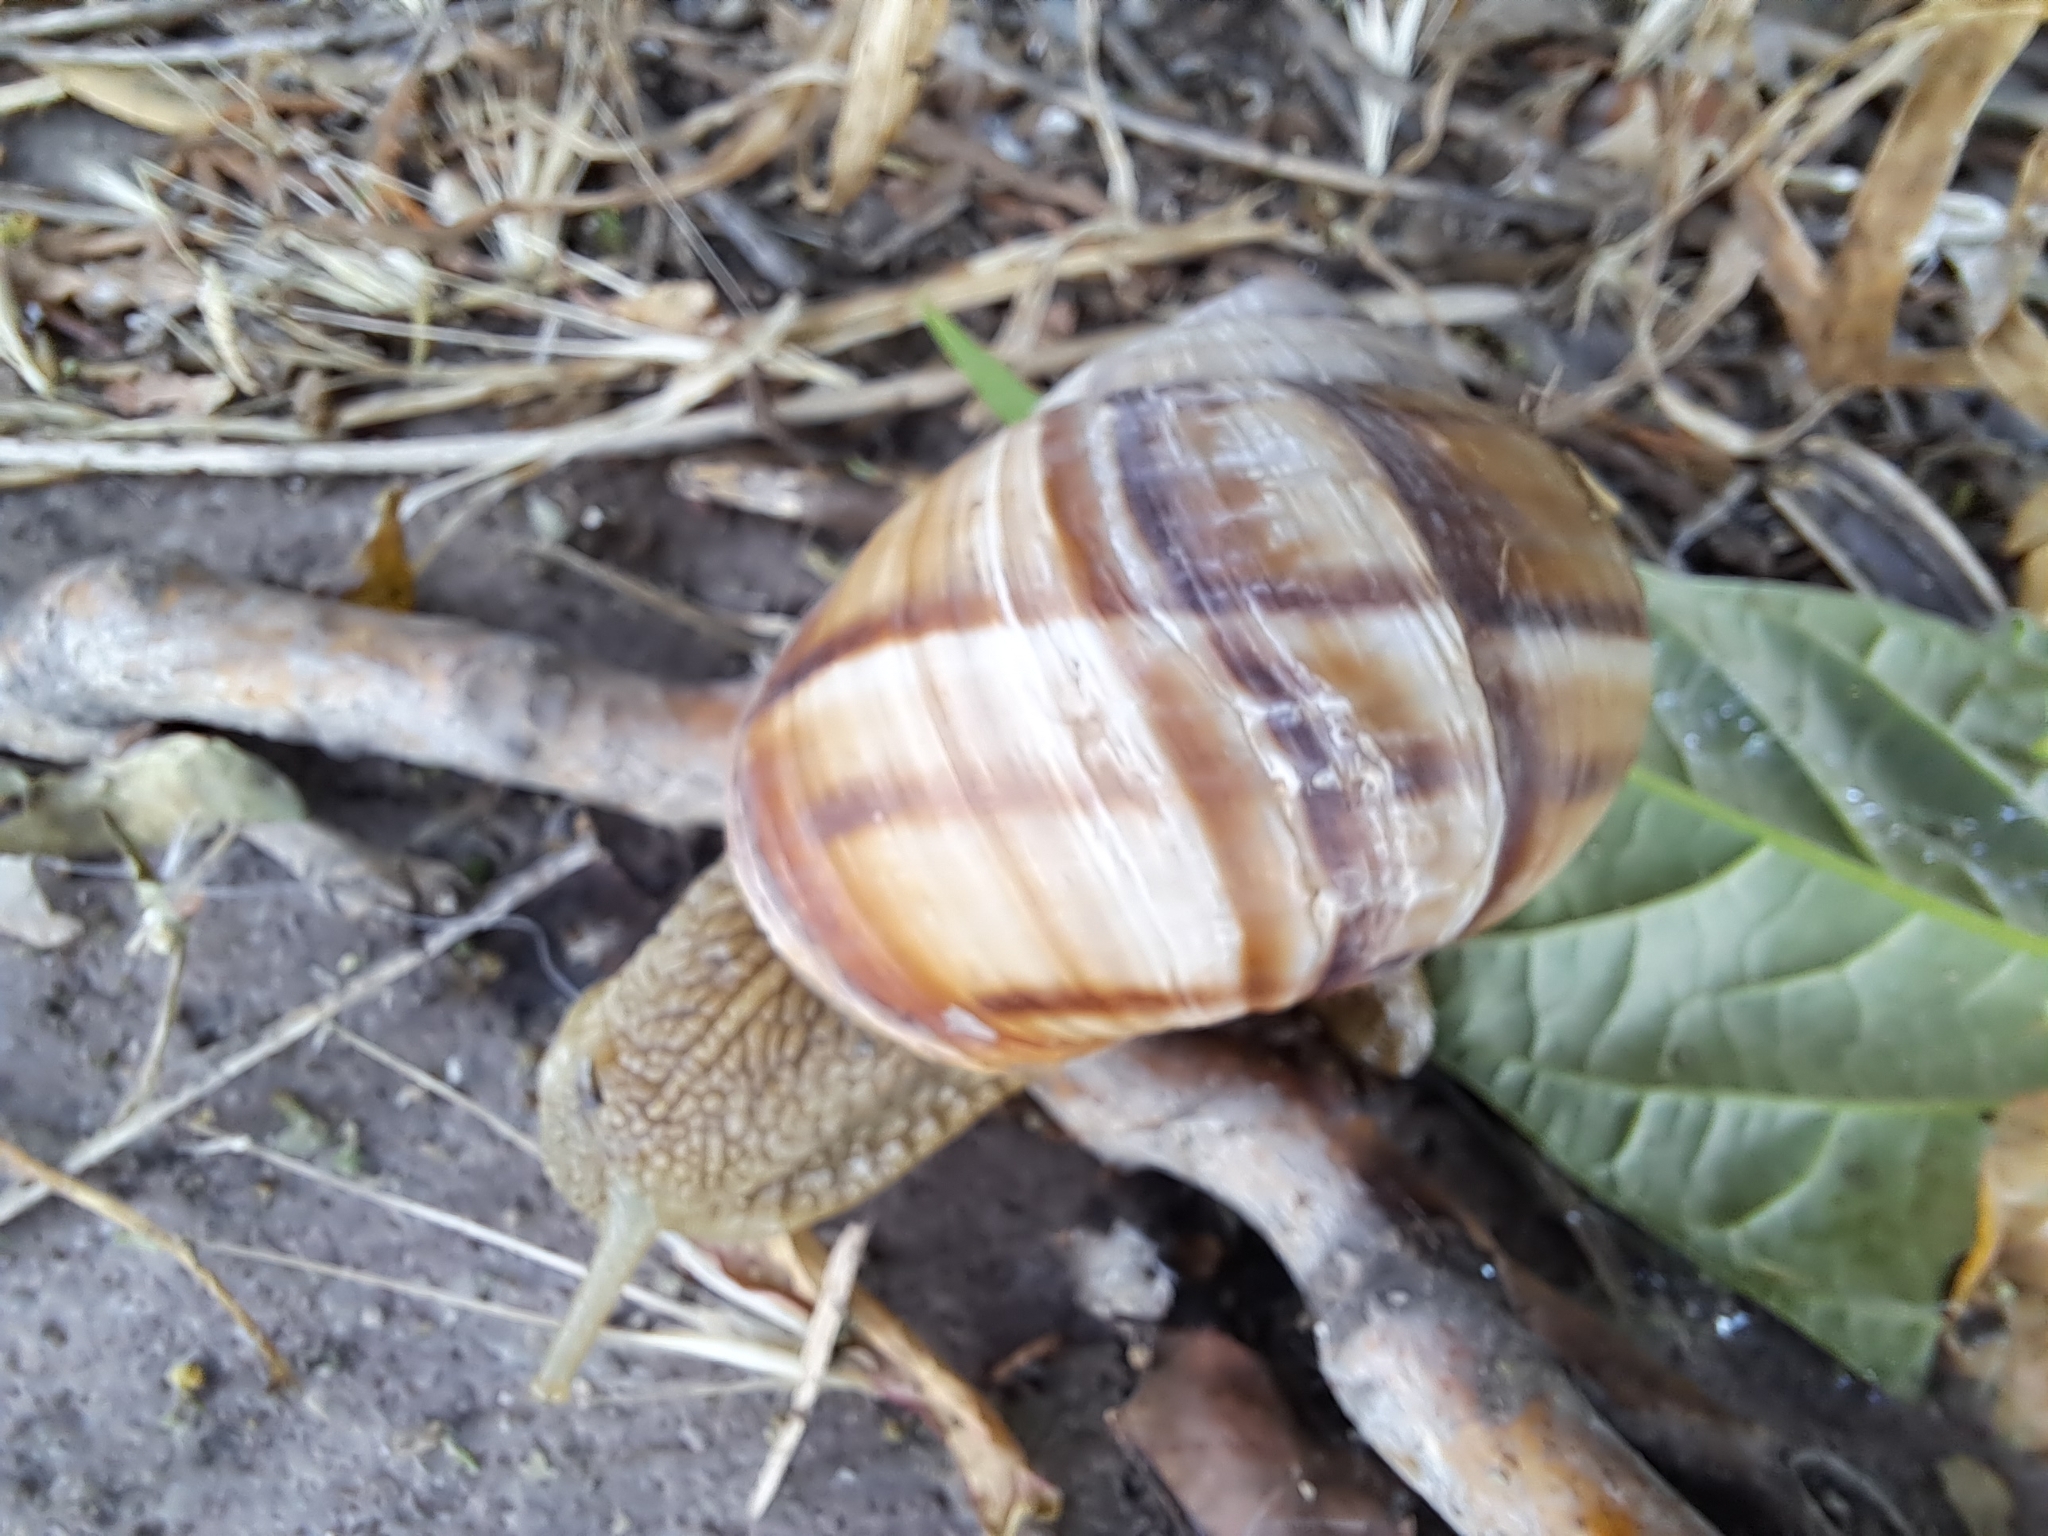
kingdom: Animalia
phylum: Mollusca
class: Gastropoda
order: Stylommatophora
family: Helicidae
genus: Helix
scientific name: Helix lucorum
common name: Turkish snail
